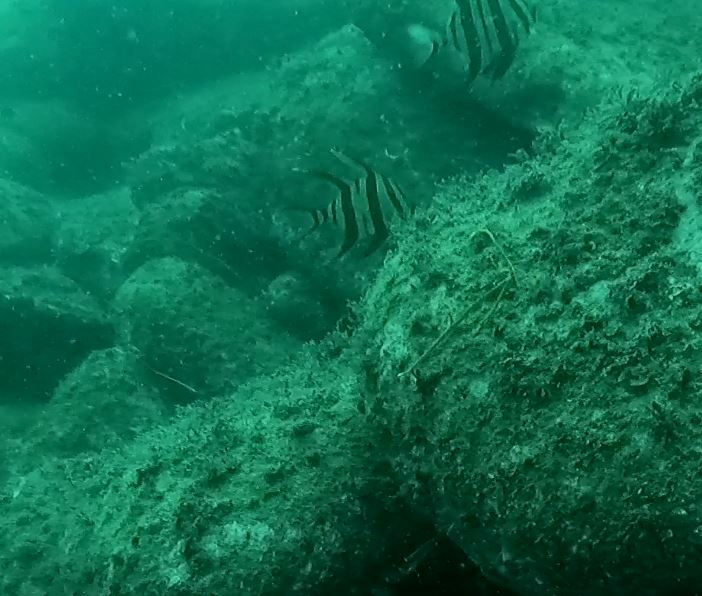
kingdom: Animalia
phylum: Chordata
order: Perciformes
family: Enoplosidae
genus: Enoplosus
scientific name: Enoplosus armatus
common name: Old wife
